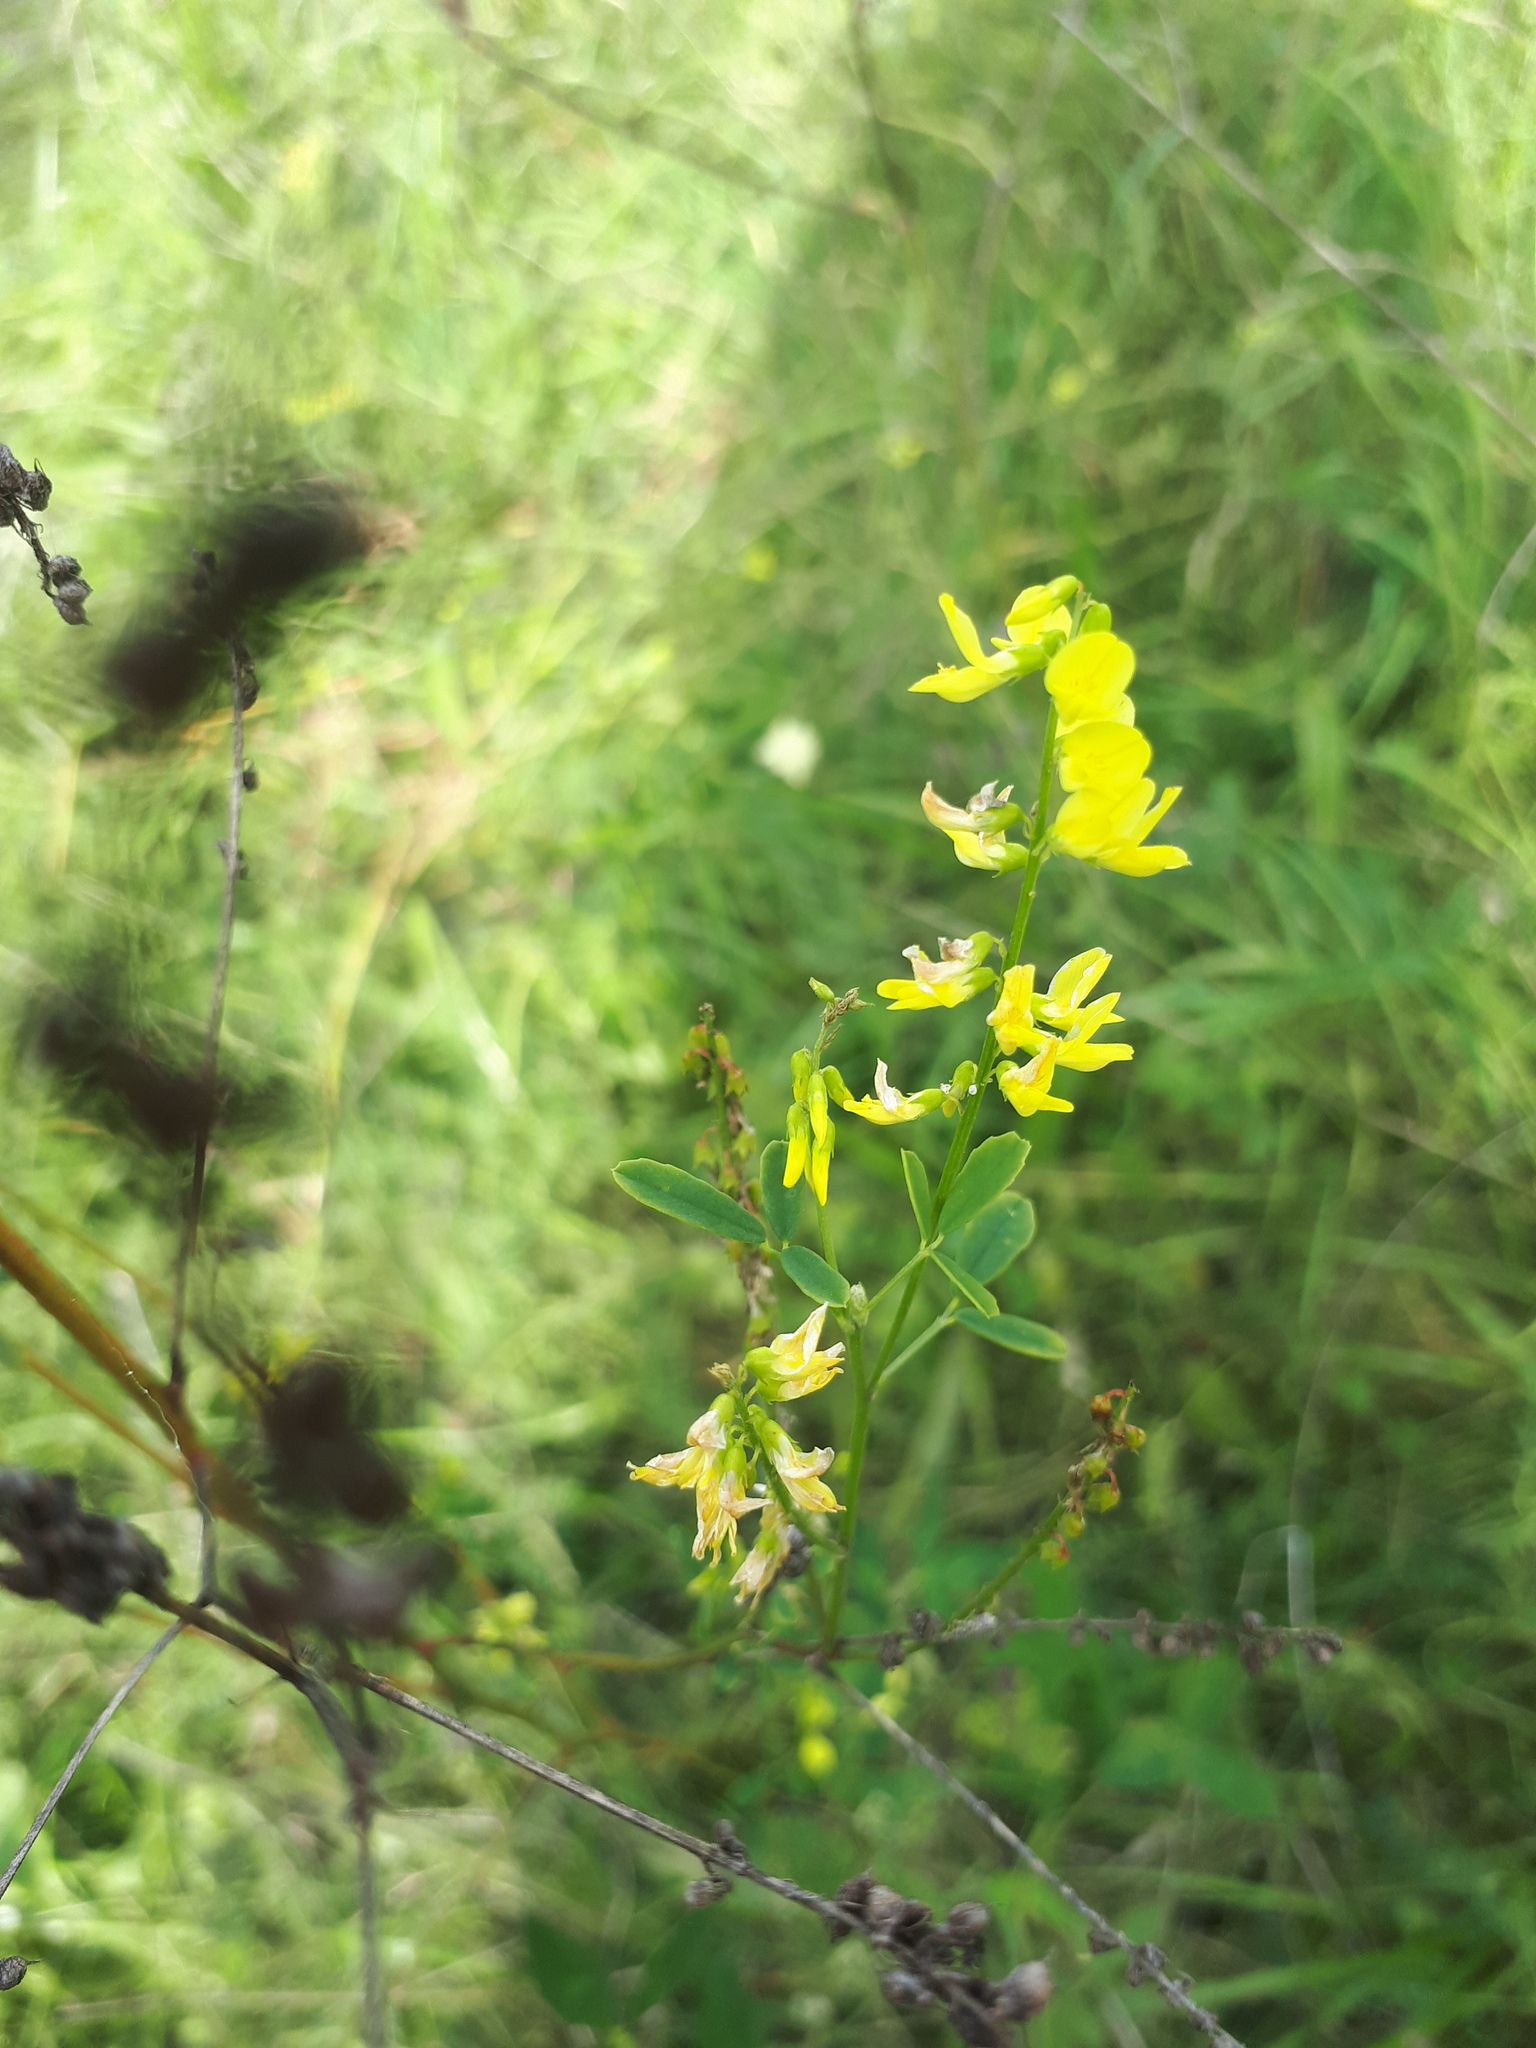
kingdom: Plantae
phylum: Tracheophyta
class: Magnoliopsida
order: Fabales
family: Fabaceae
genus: Melilotus
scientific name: Melilotus officinalis
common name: Sweetclover
